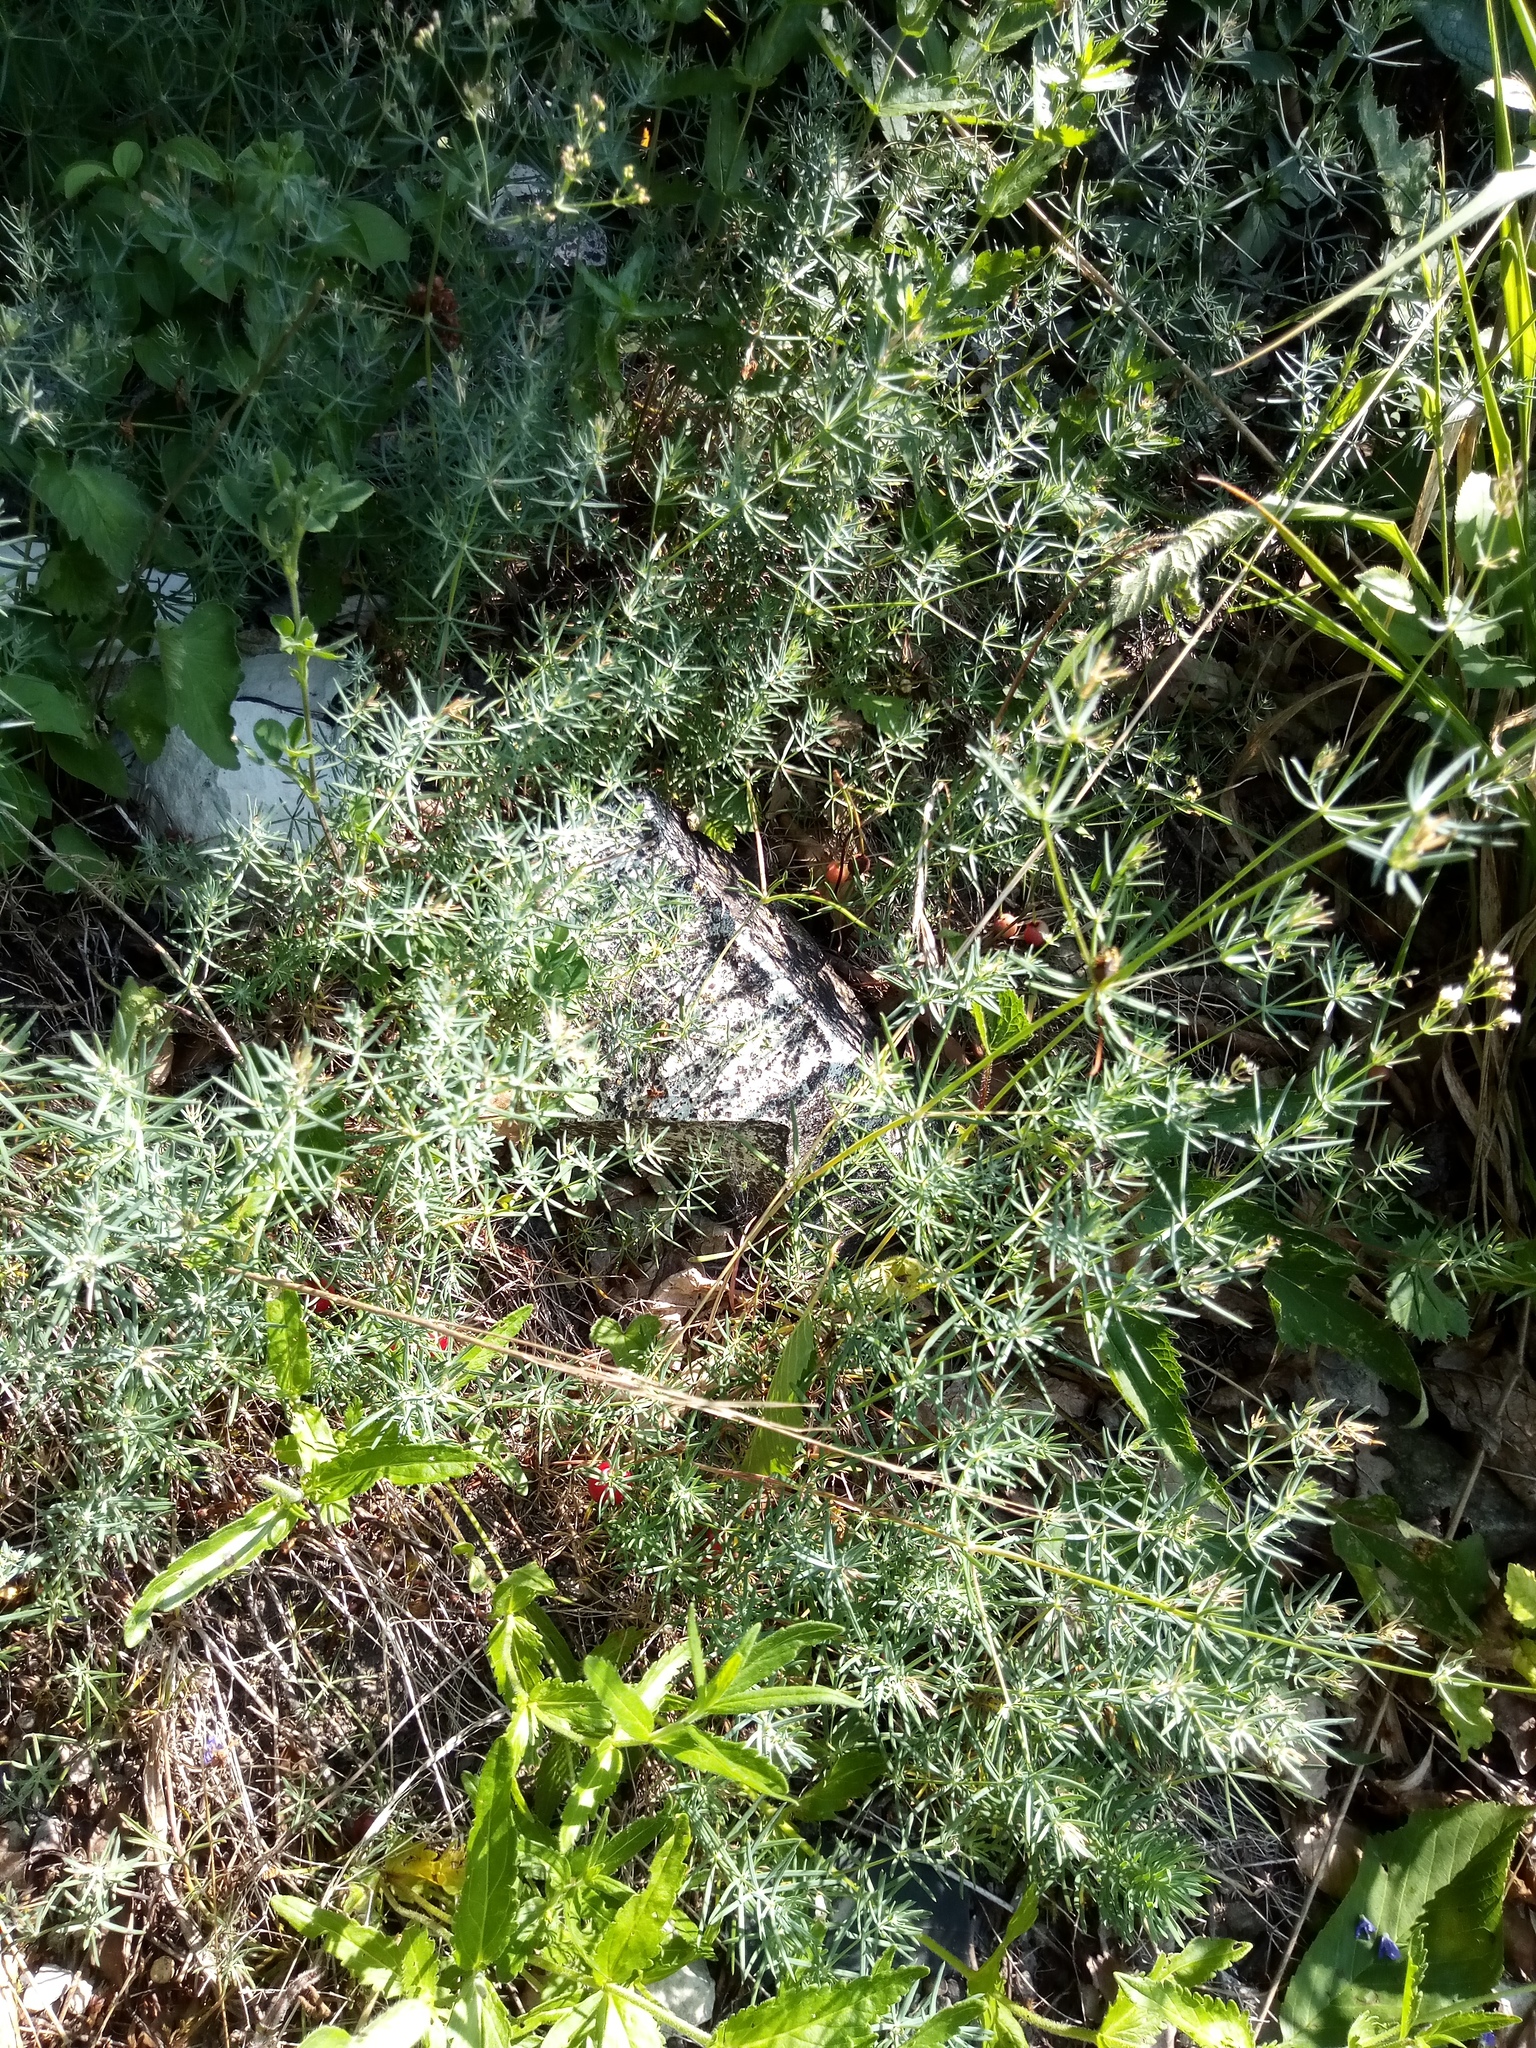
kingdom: Plantae
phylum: Tracheophyta
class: Magnoliopsida
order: Gentianales
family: Rubiaceae
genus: Galium
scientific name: Galium glaucum
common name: Waxy bedstraw
